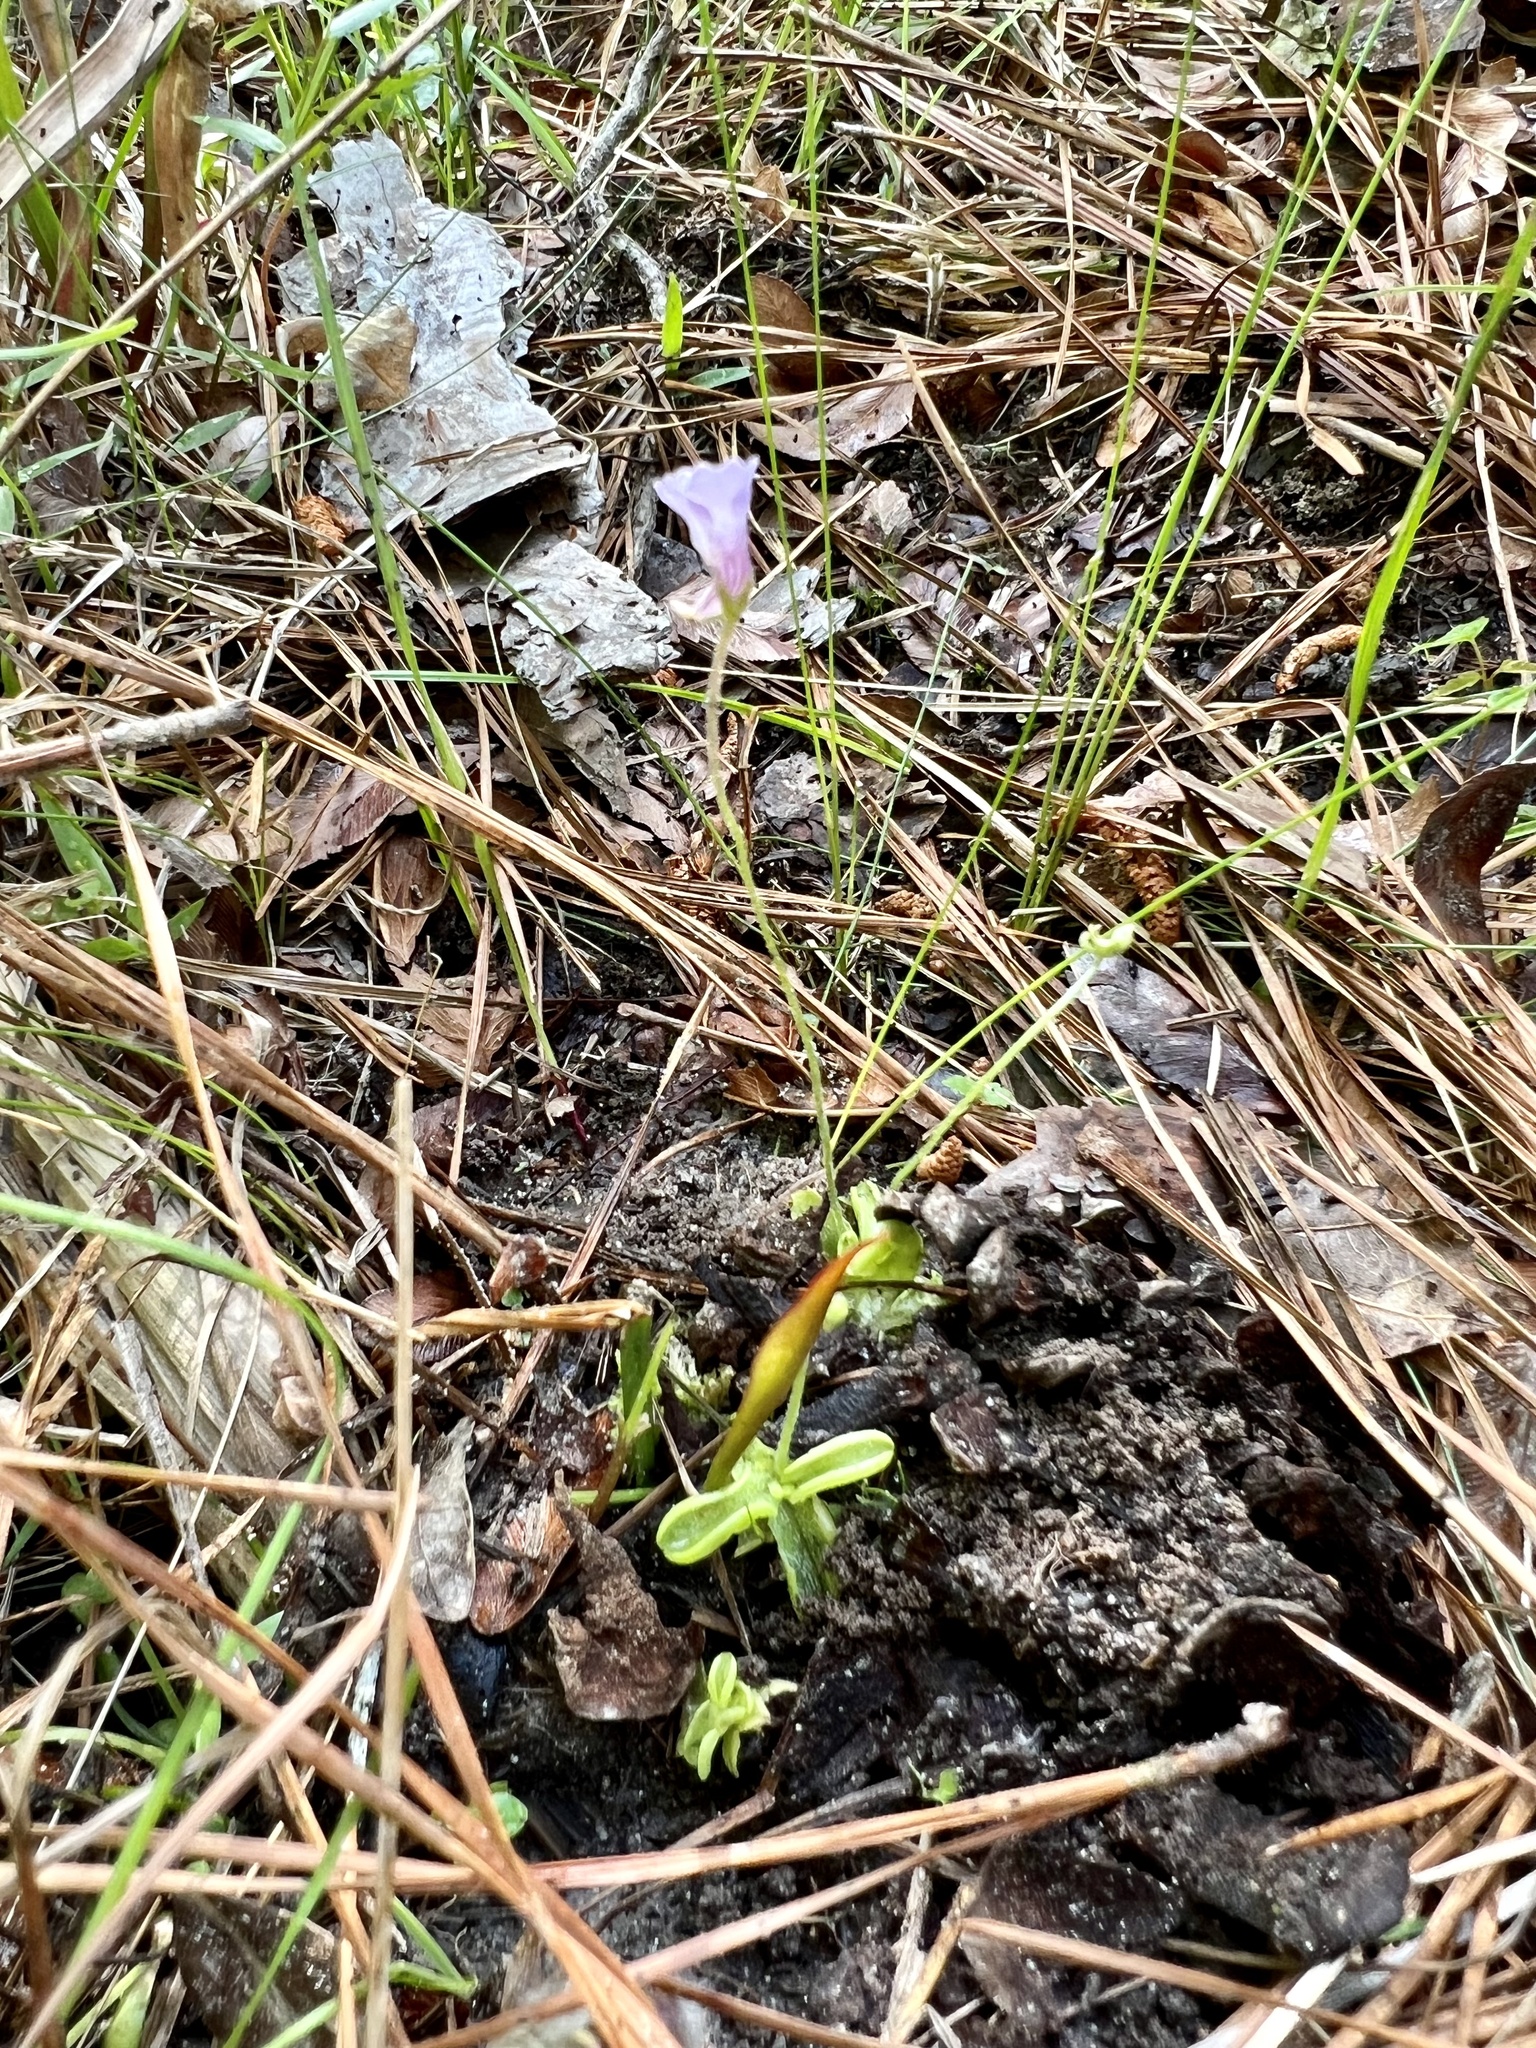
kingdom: Plantae
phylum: Tracheophyta
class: Magnoliopsida
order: Lamiales
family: Lentibulariaceae
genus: Pinguicula
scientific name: Pinguicula pumila
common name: Small butterwort
